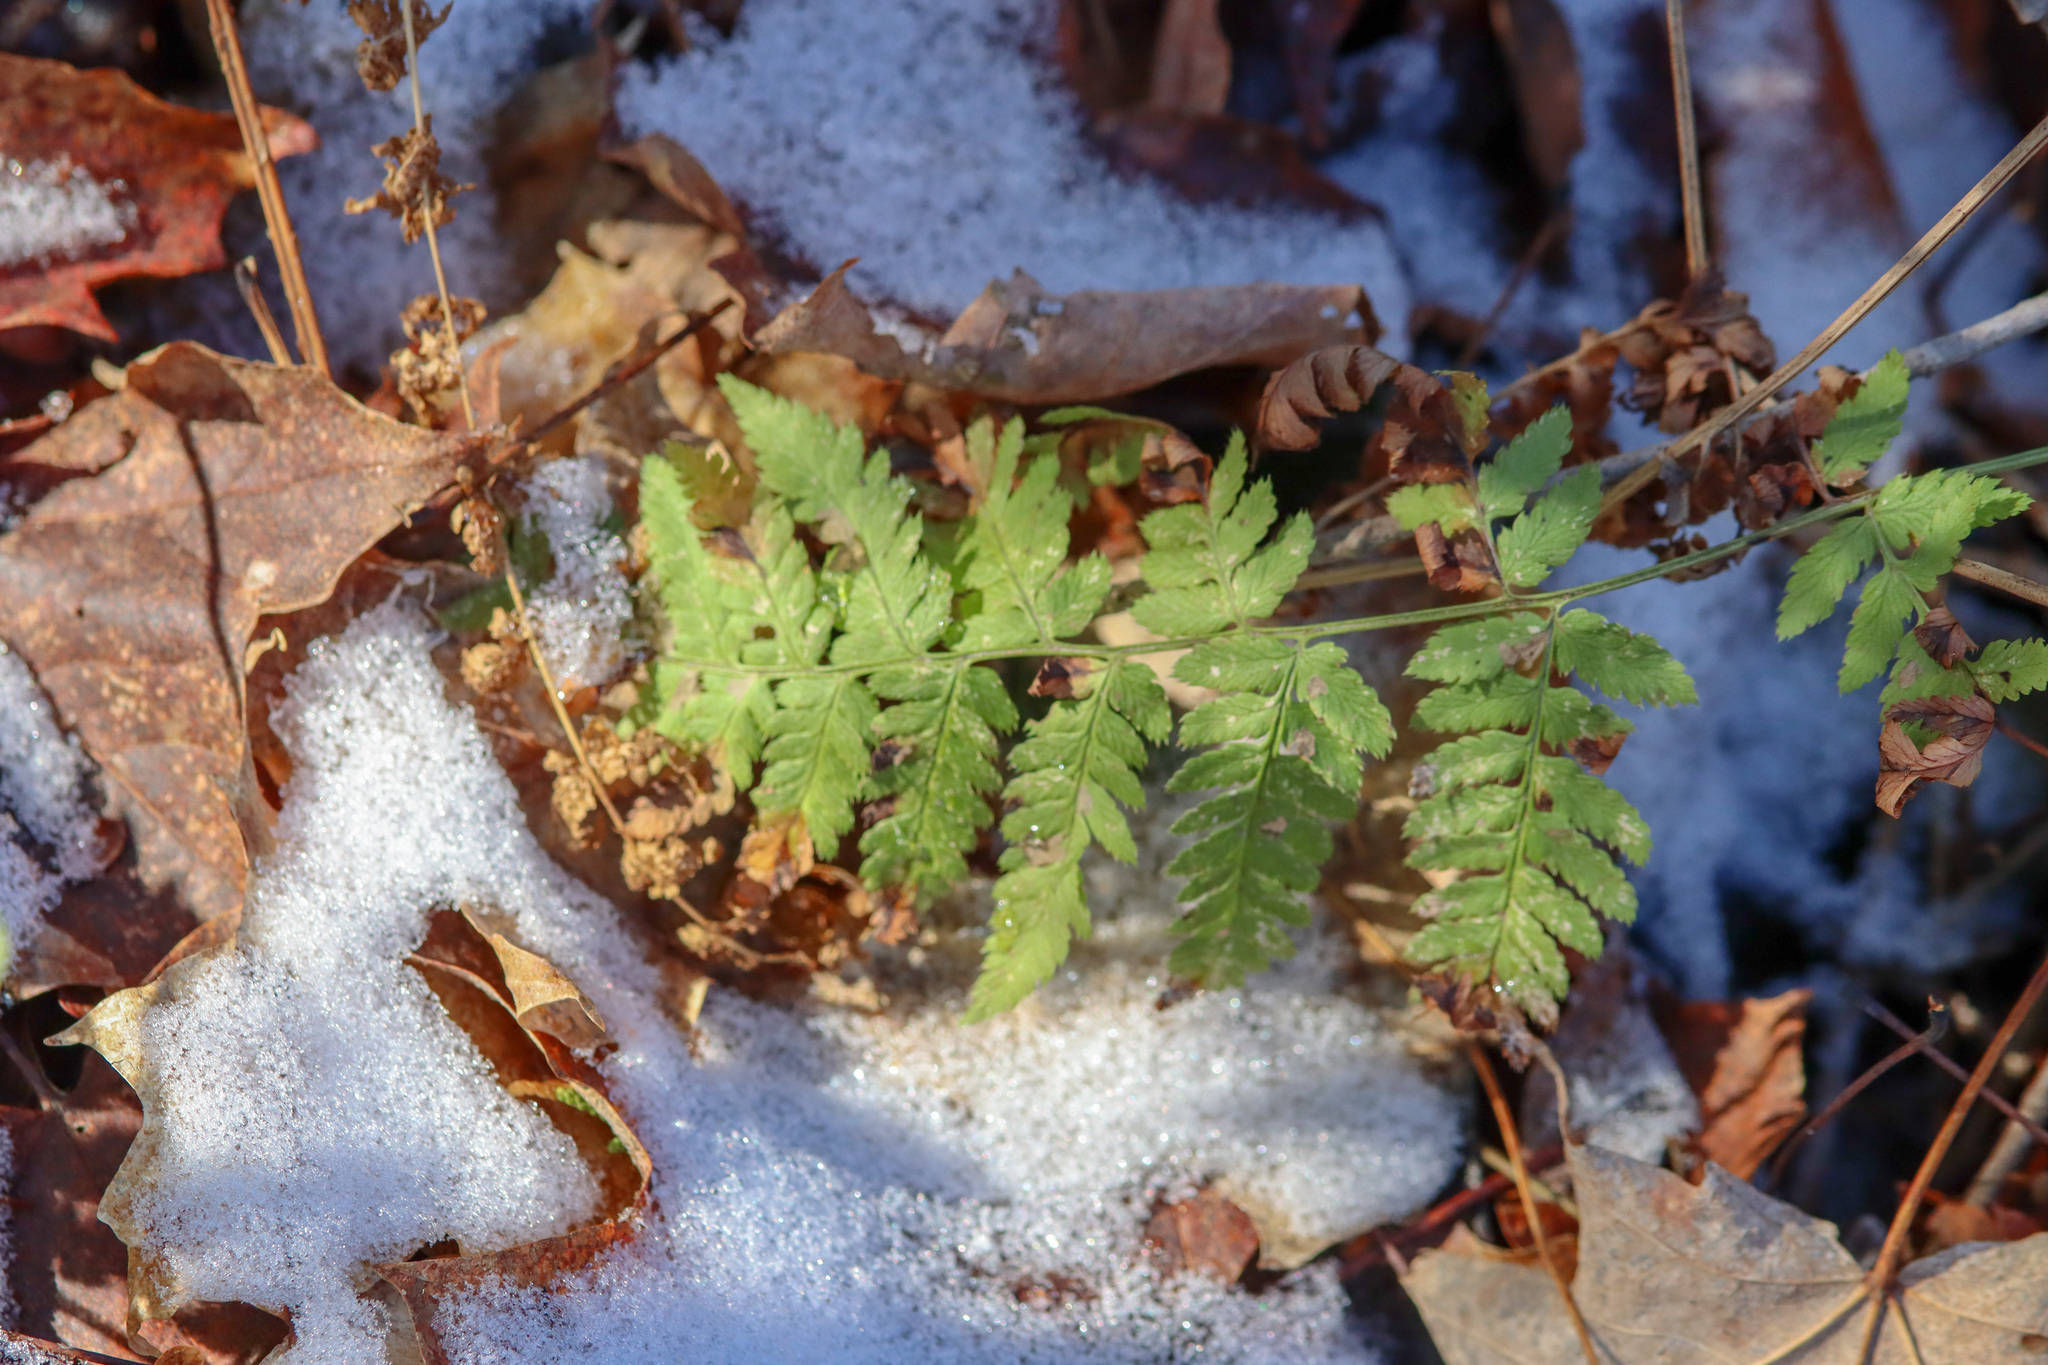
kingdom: Plantae
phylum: Tracheophyta
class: Polypodiopsida
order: Polypodiales
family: Dryopteridaceae
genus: Dryopteris
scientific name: Dryopteris carthusiana
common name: Narrow buckler-fern
